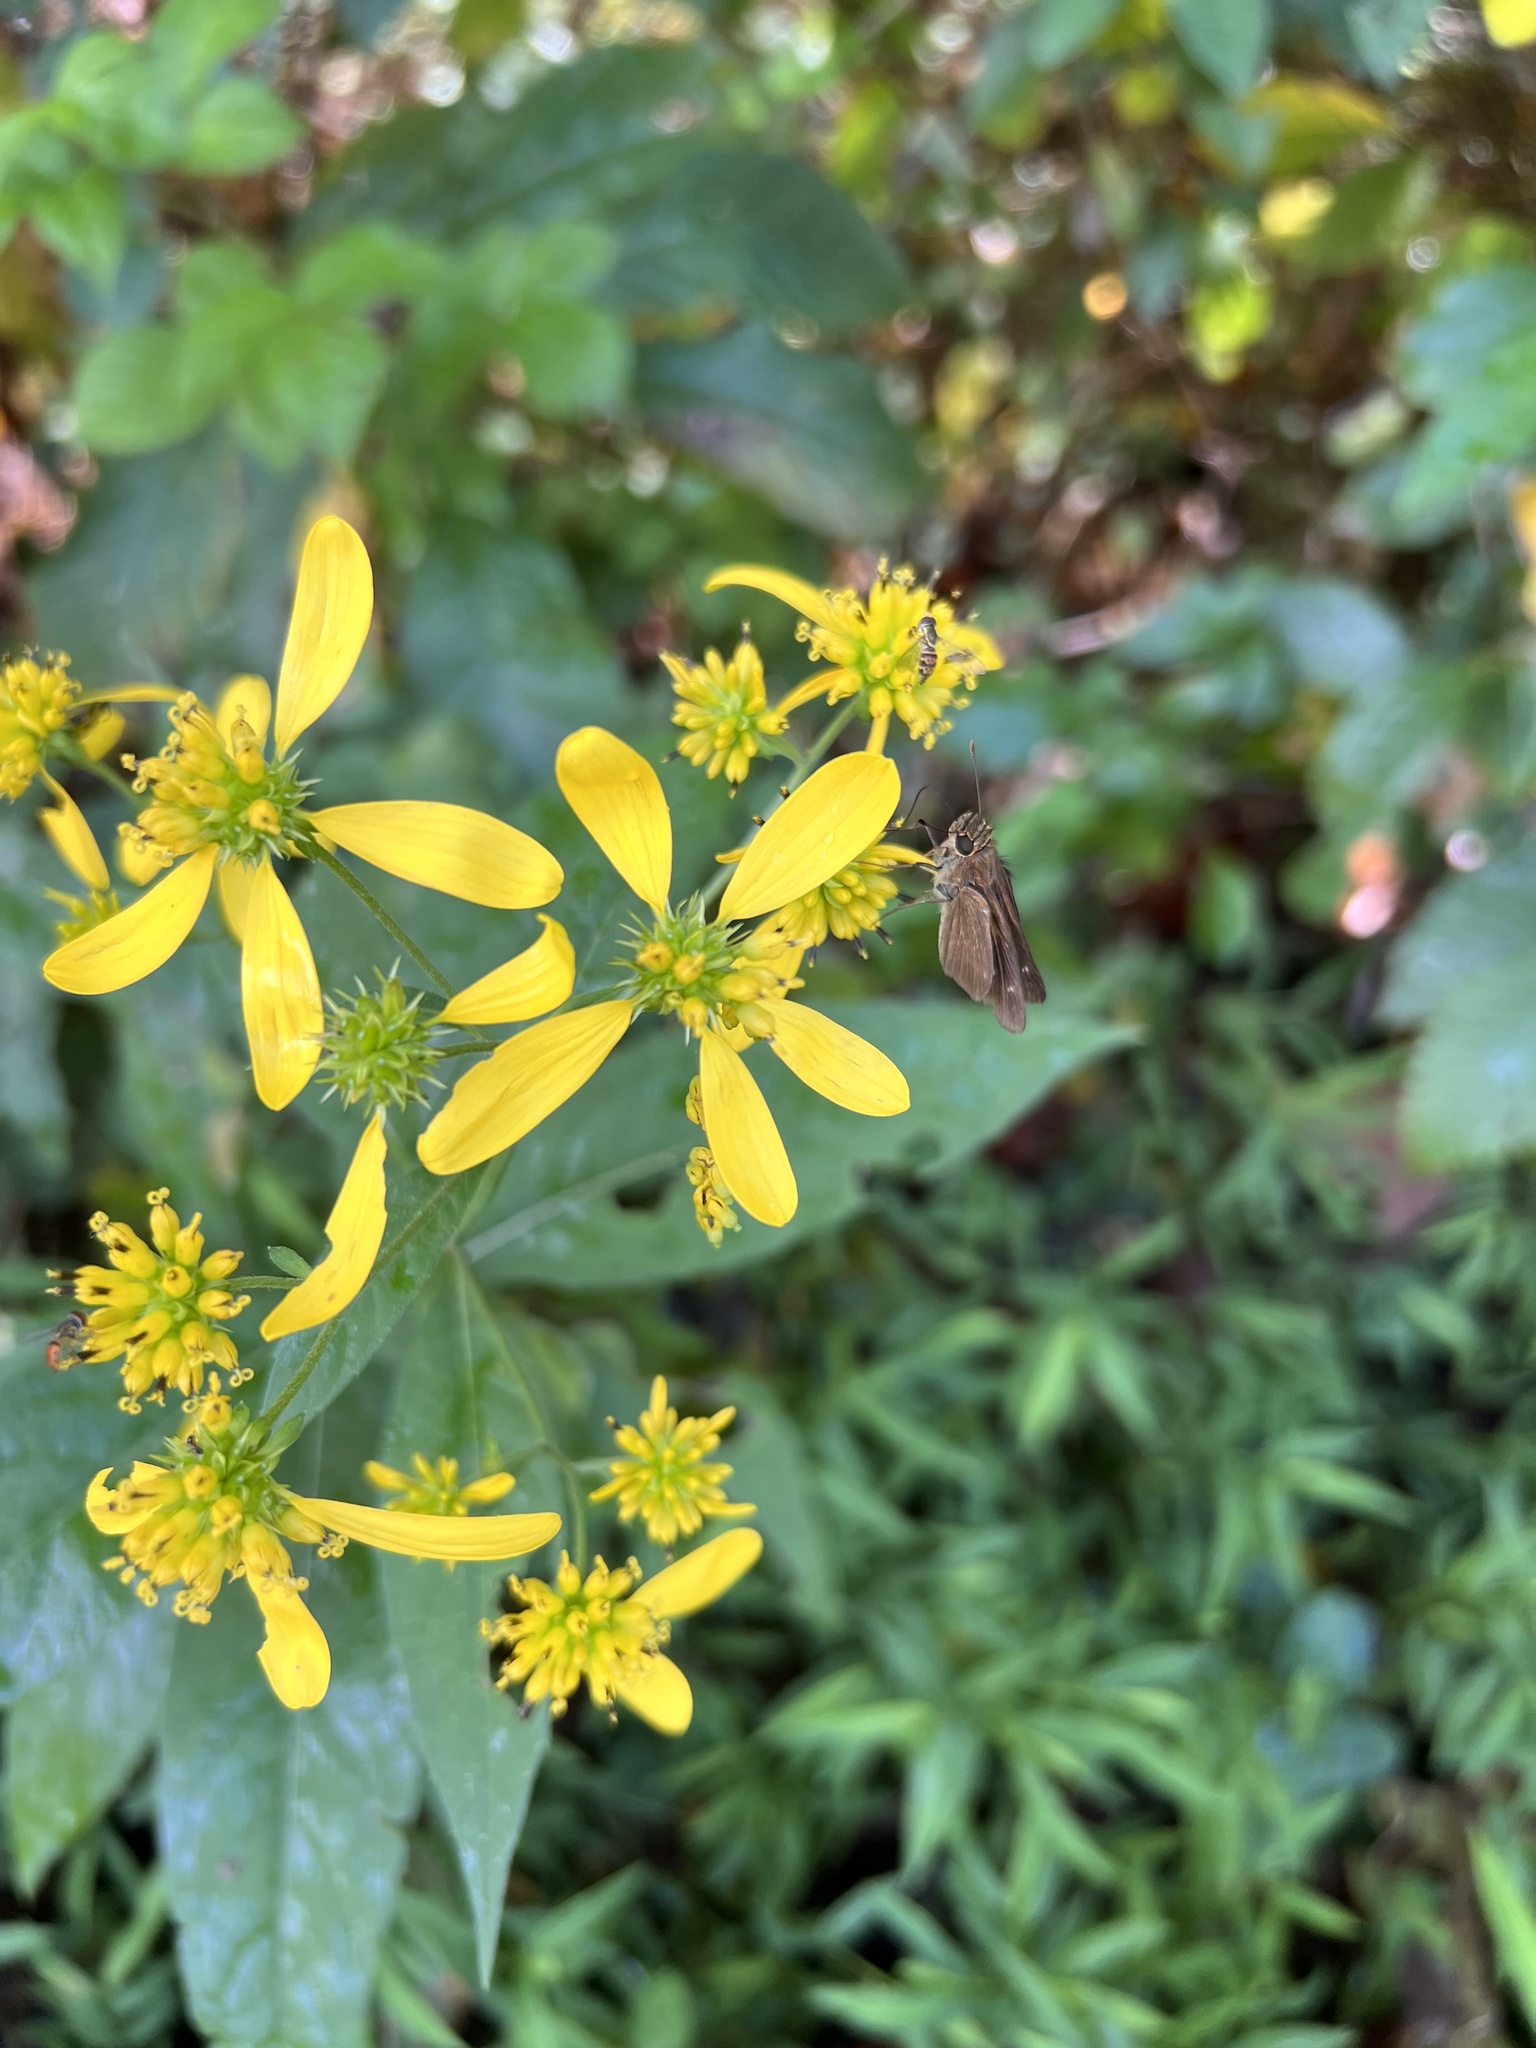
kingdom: Plantae
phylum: Tracheophyta
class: Magnoliopsida
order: Asterales
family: Asteraceae
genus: Verbesina
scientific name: Verbesina alternifolia
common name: Wingstem
